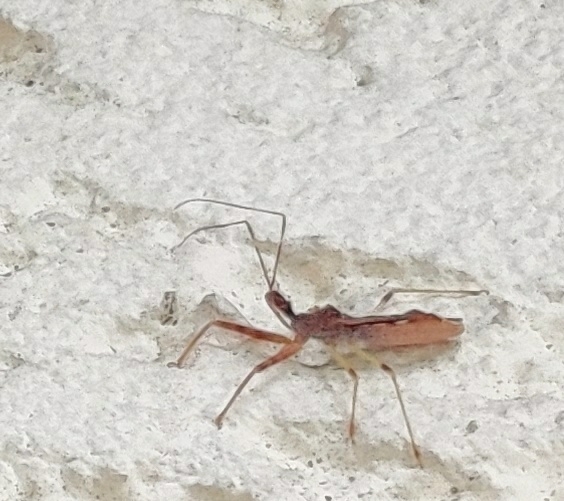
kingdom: Animalia
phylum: Arthropoda
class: Insecta
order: Hemiptera
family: Reduviidae
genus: Nagusta
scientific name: Nagusta goedelii
